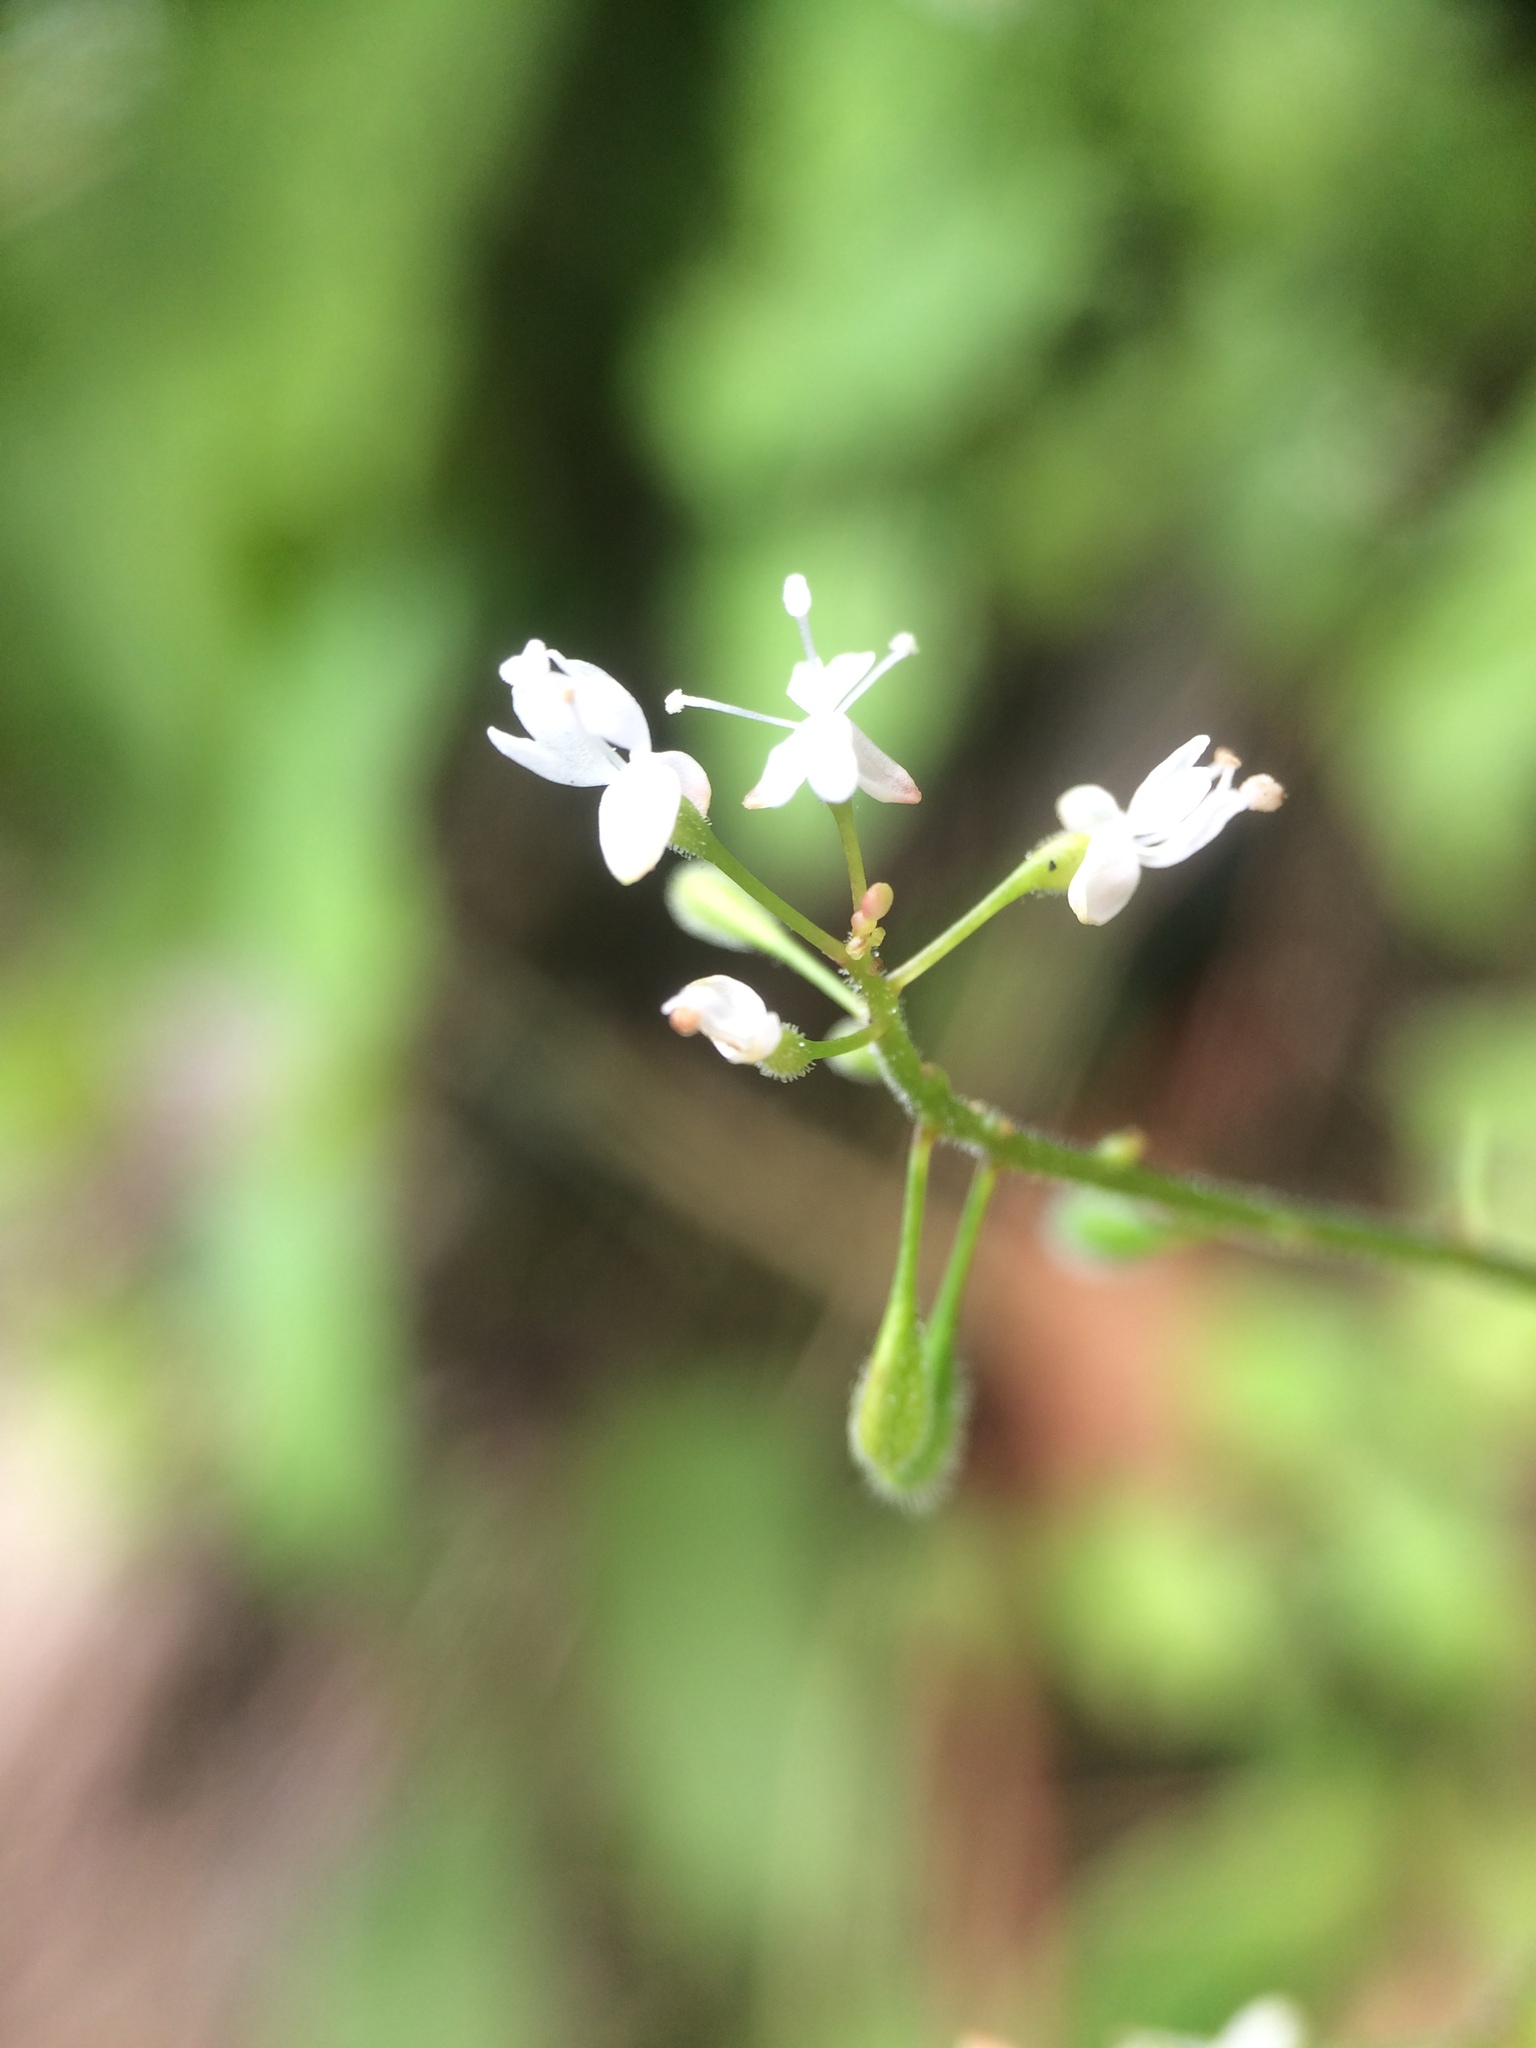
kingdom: Plantae
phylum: Tracheophyta
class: Magnoliopsida
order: Myrtales
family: Onagraceae
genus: Circaea
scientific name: Circaea alpina
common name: Alpine enchanter's-nightshade
